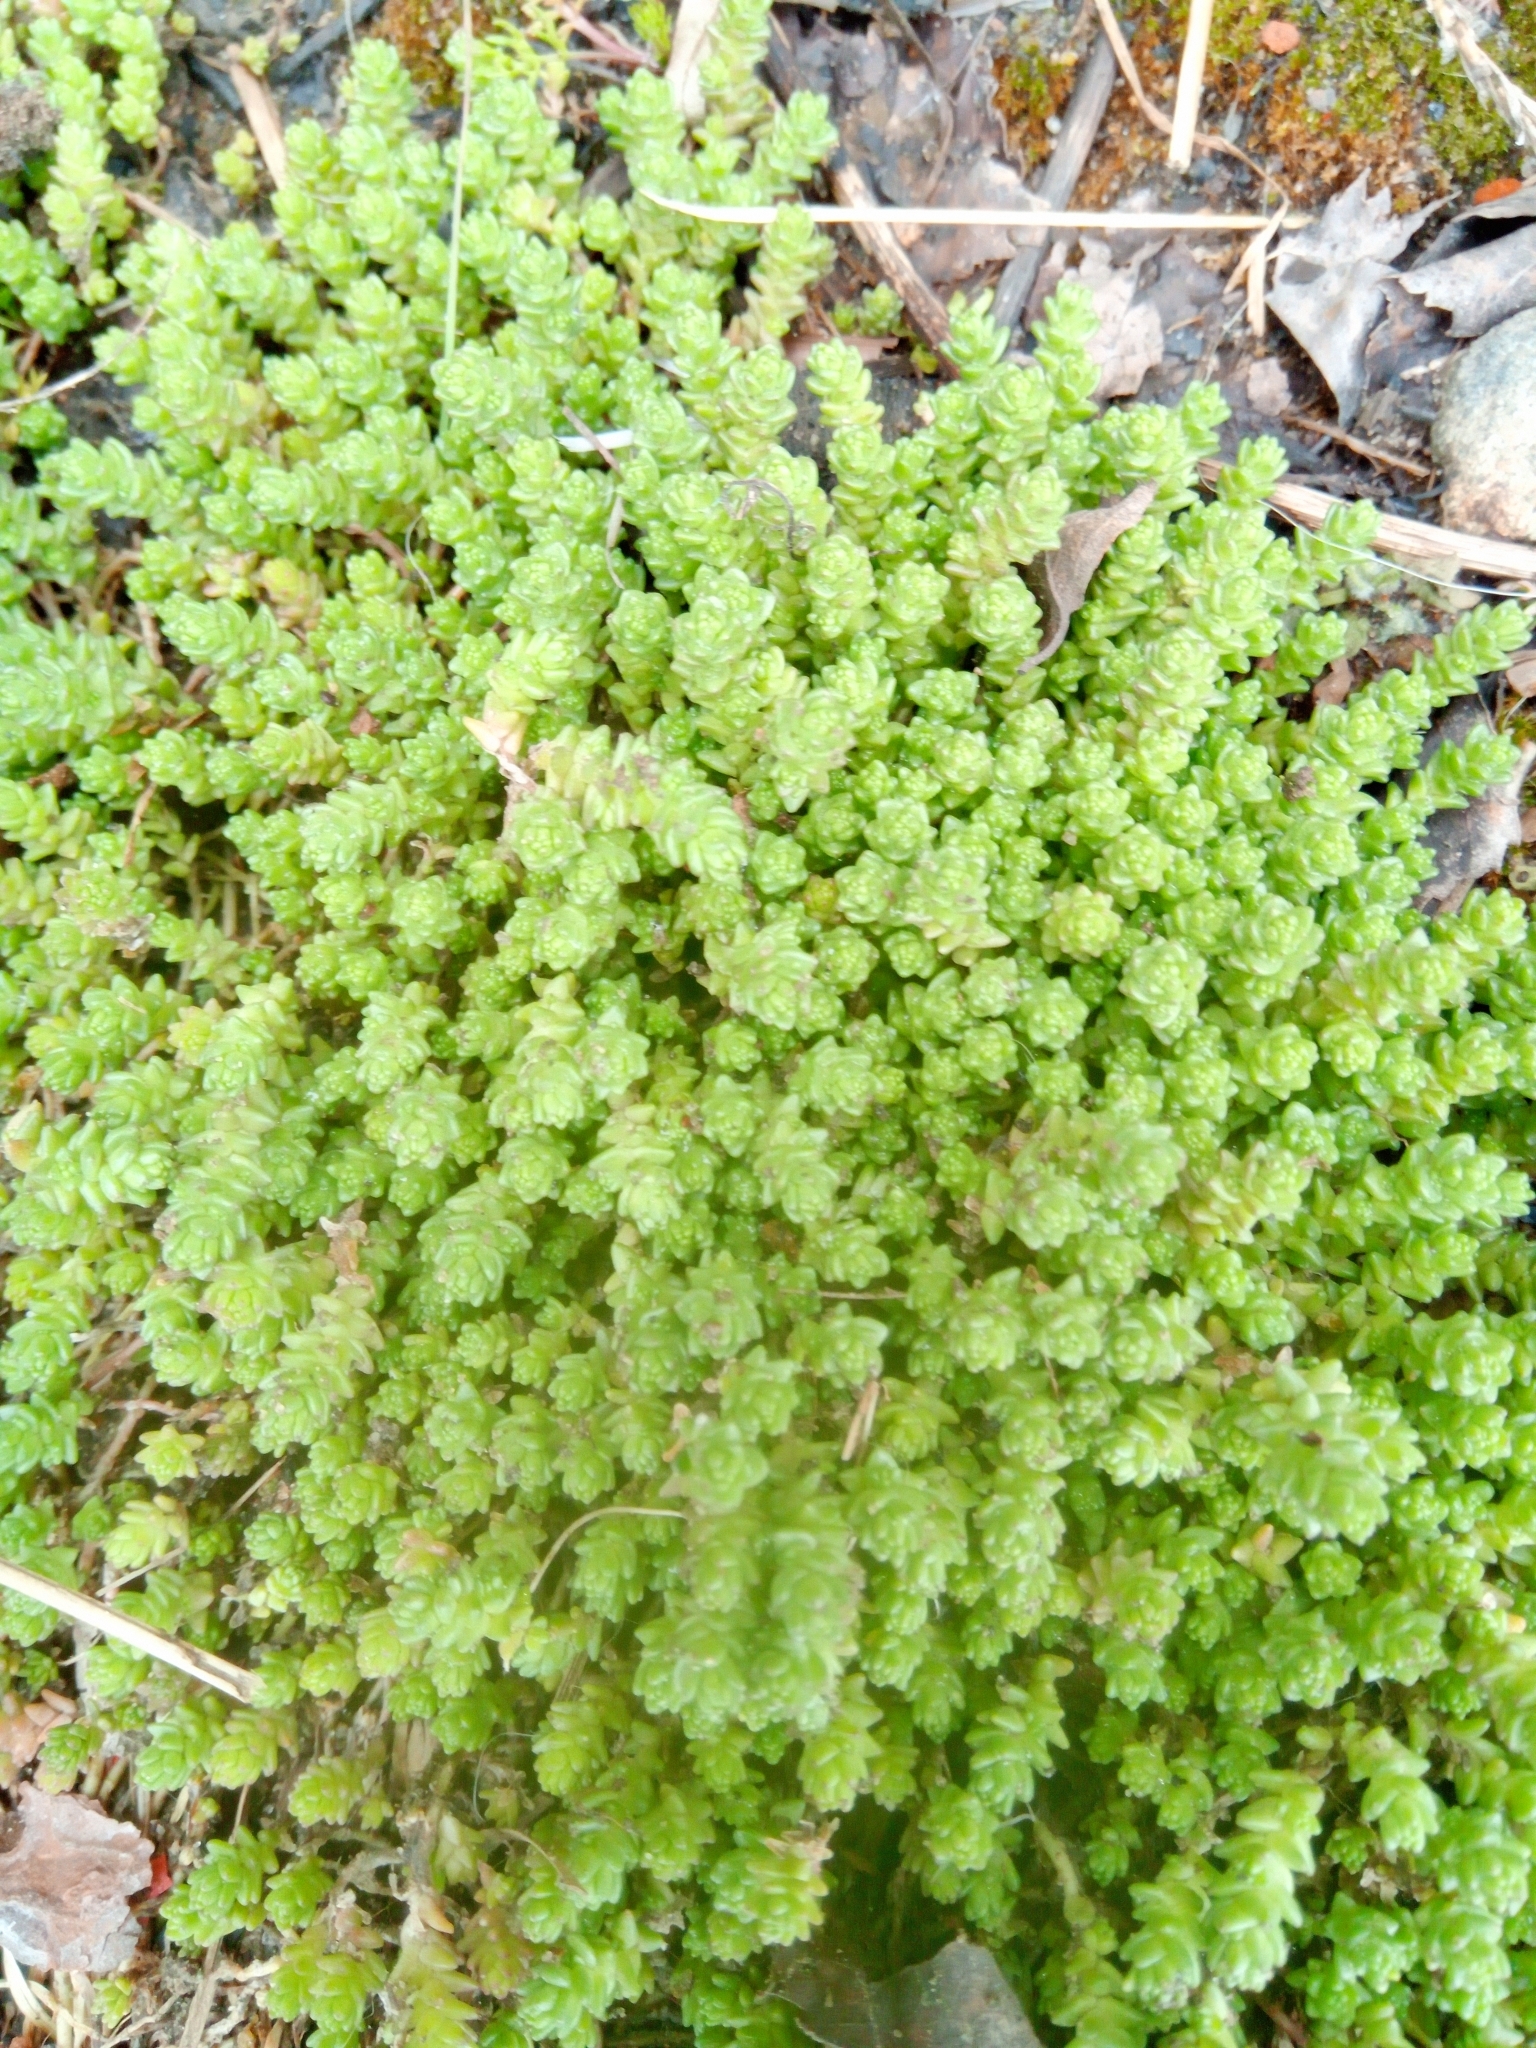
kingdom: Plantae
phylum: Tracheophyta
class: Magnoliopsida
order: Saxifragales
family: Crassulaceae
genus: Sedum
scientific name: Sedum acre
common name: Biting stonecrop
